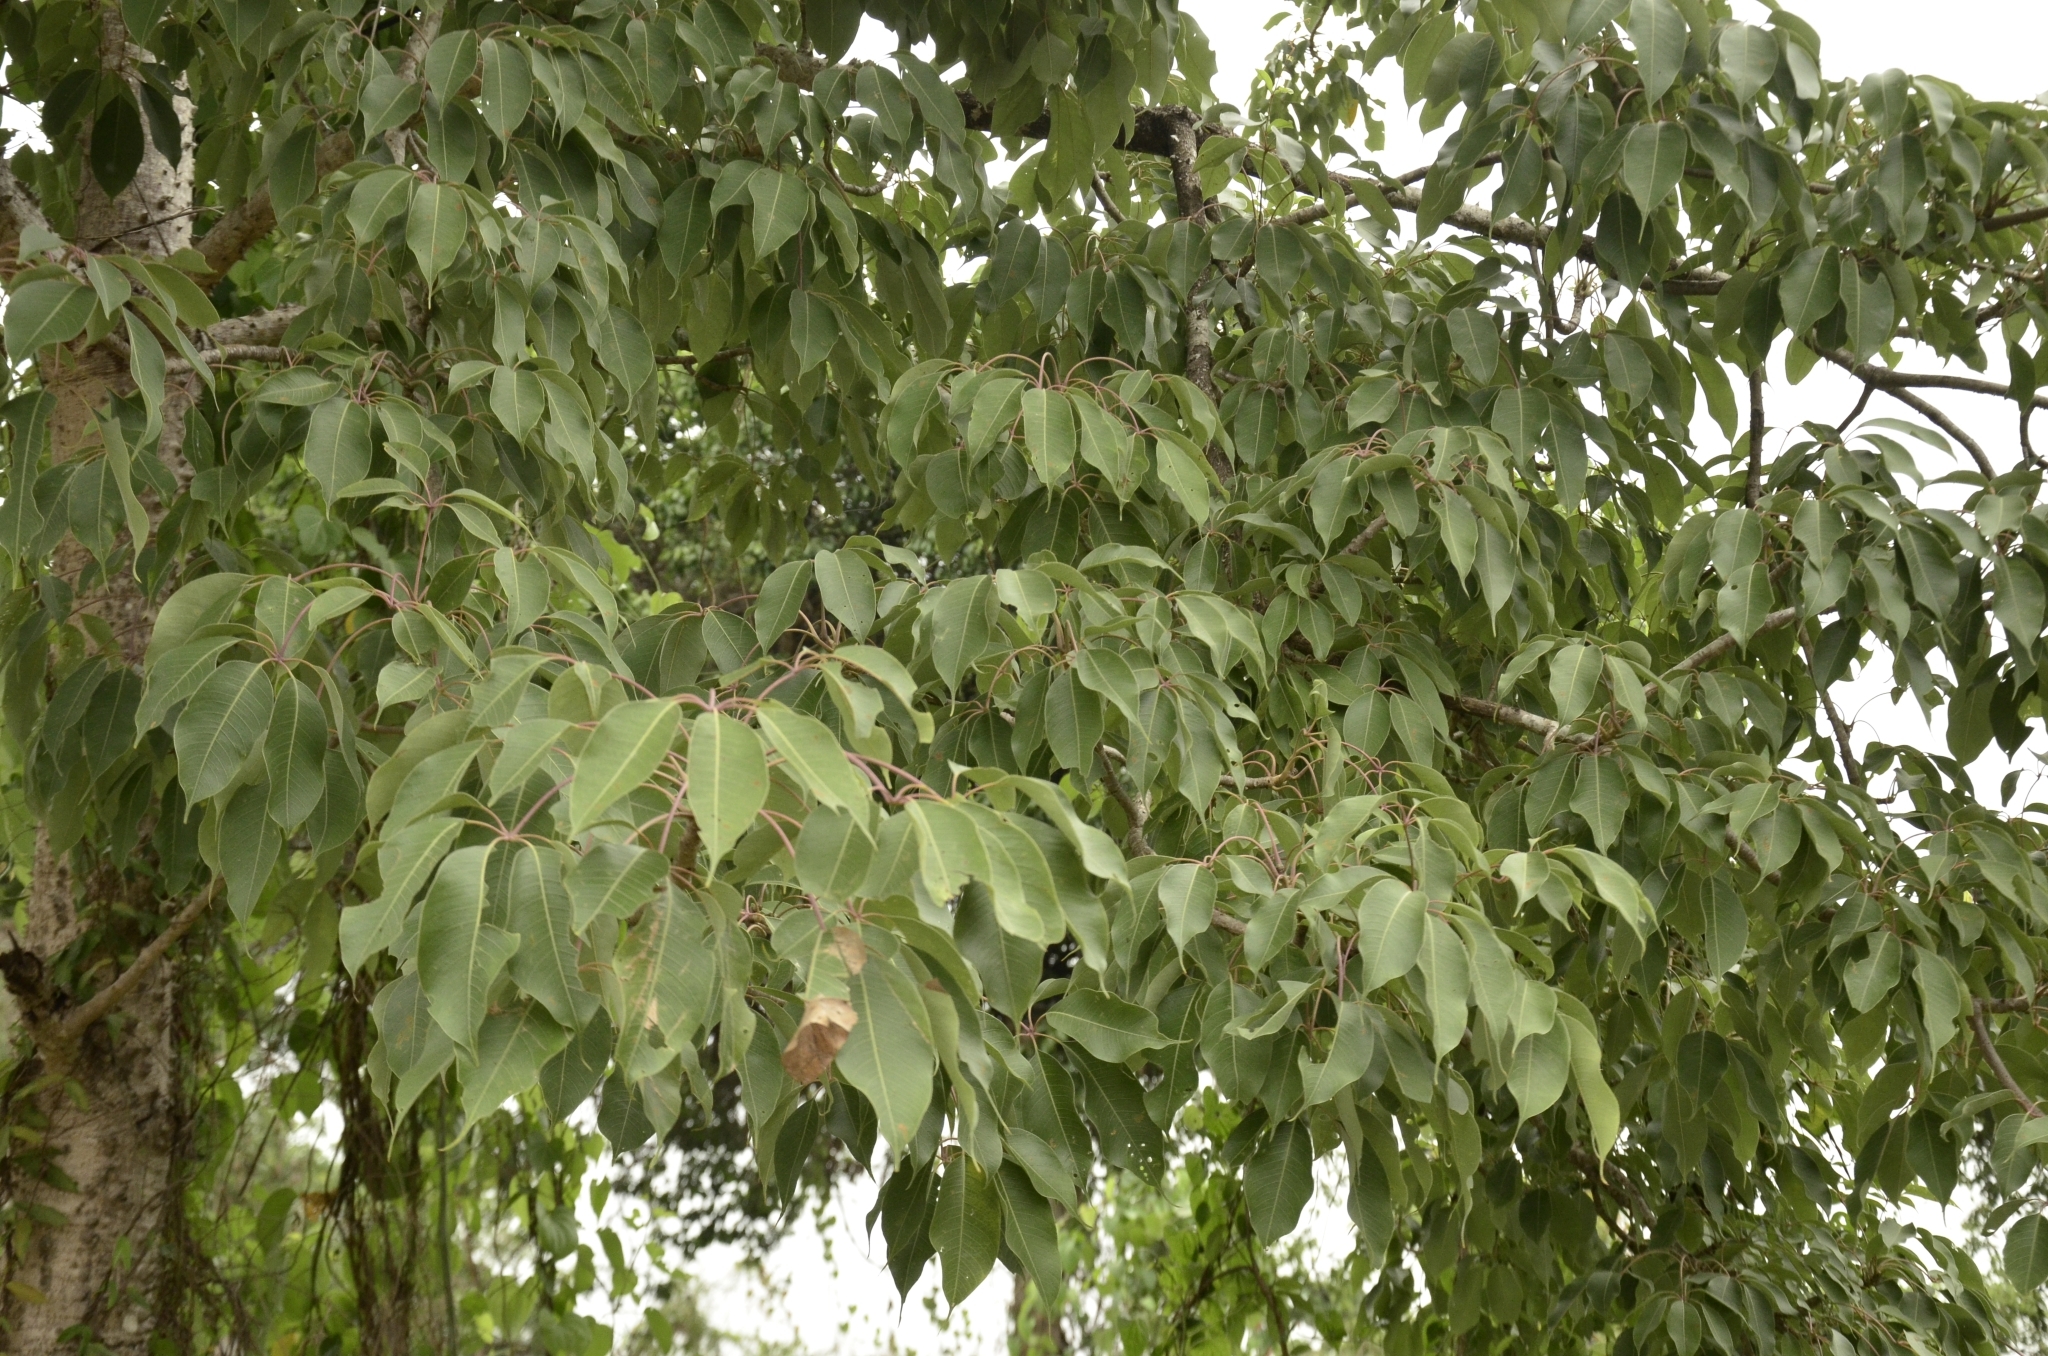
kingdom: Plantae
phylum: Tracheophyta
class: Magnoliopsida
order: Malvales
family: Malvaceae
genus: Bombax
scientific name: Bombax ceiba
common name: Northern-cottonwood
